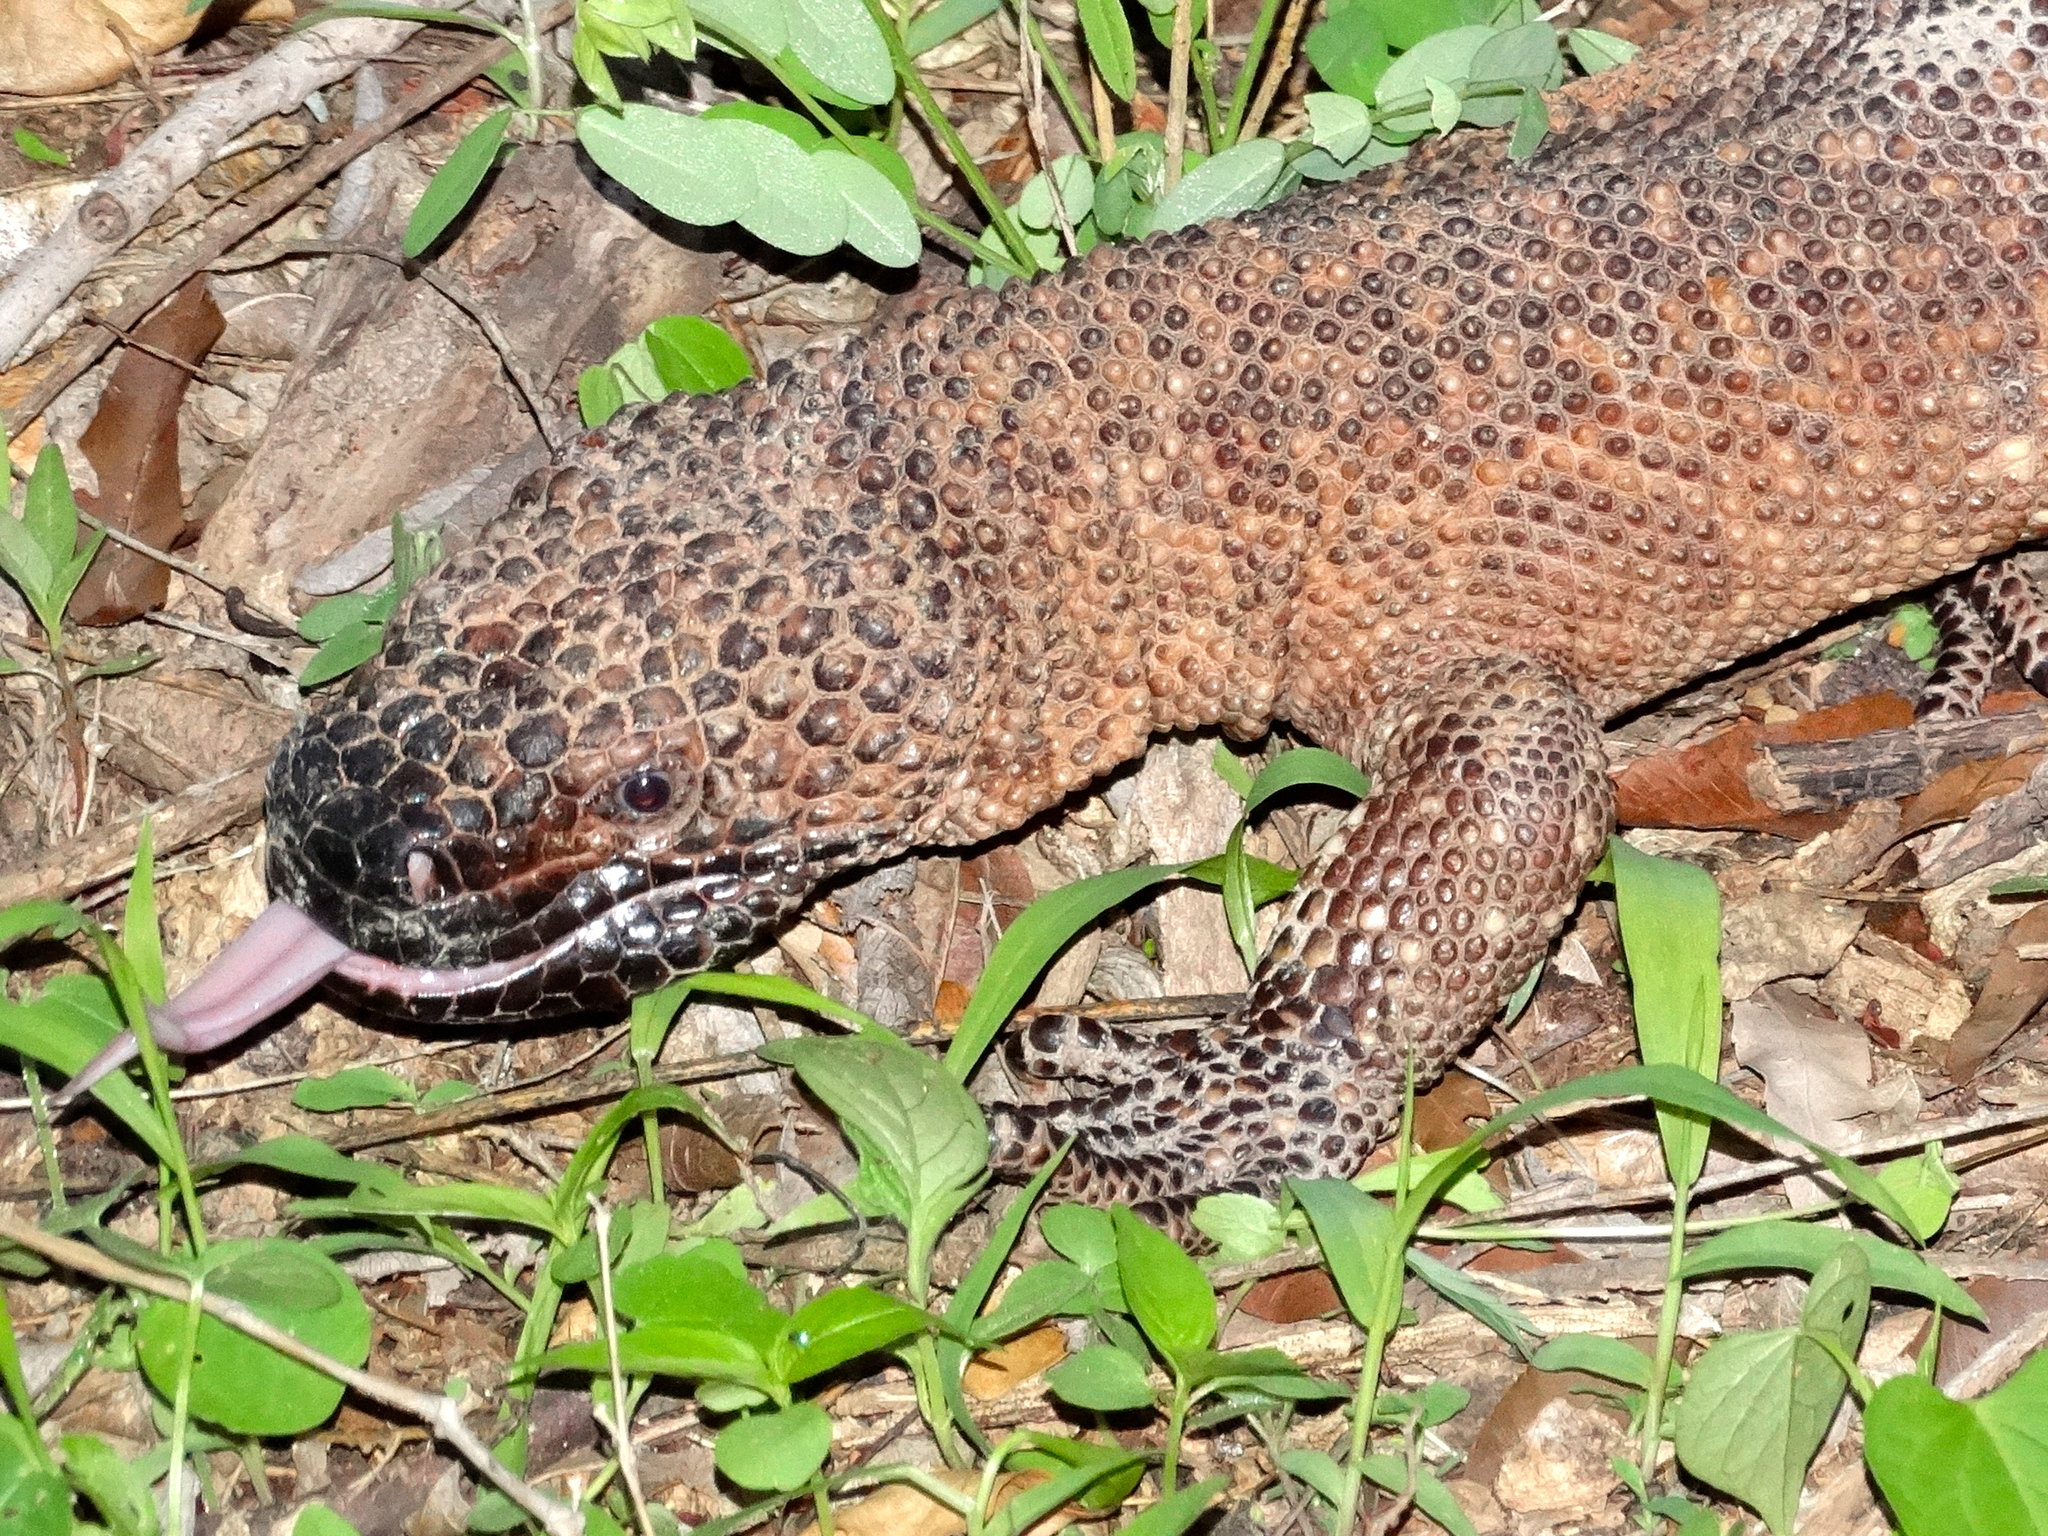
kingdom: Animalia
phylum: Chordata
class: Squamata
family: Helodermatidae
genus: Heloderma
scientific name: Heloderma horridum
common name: Mexican beaded lizard
